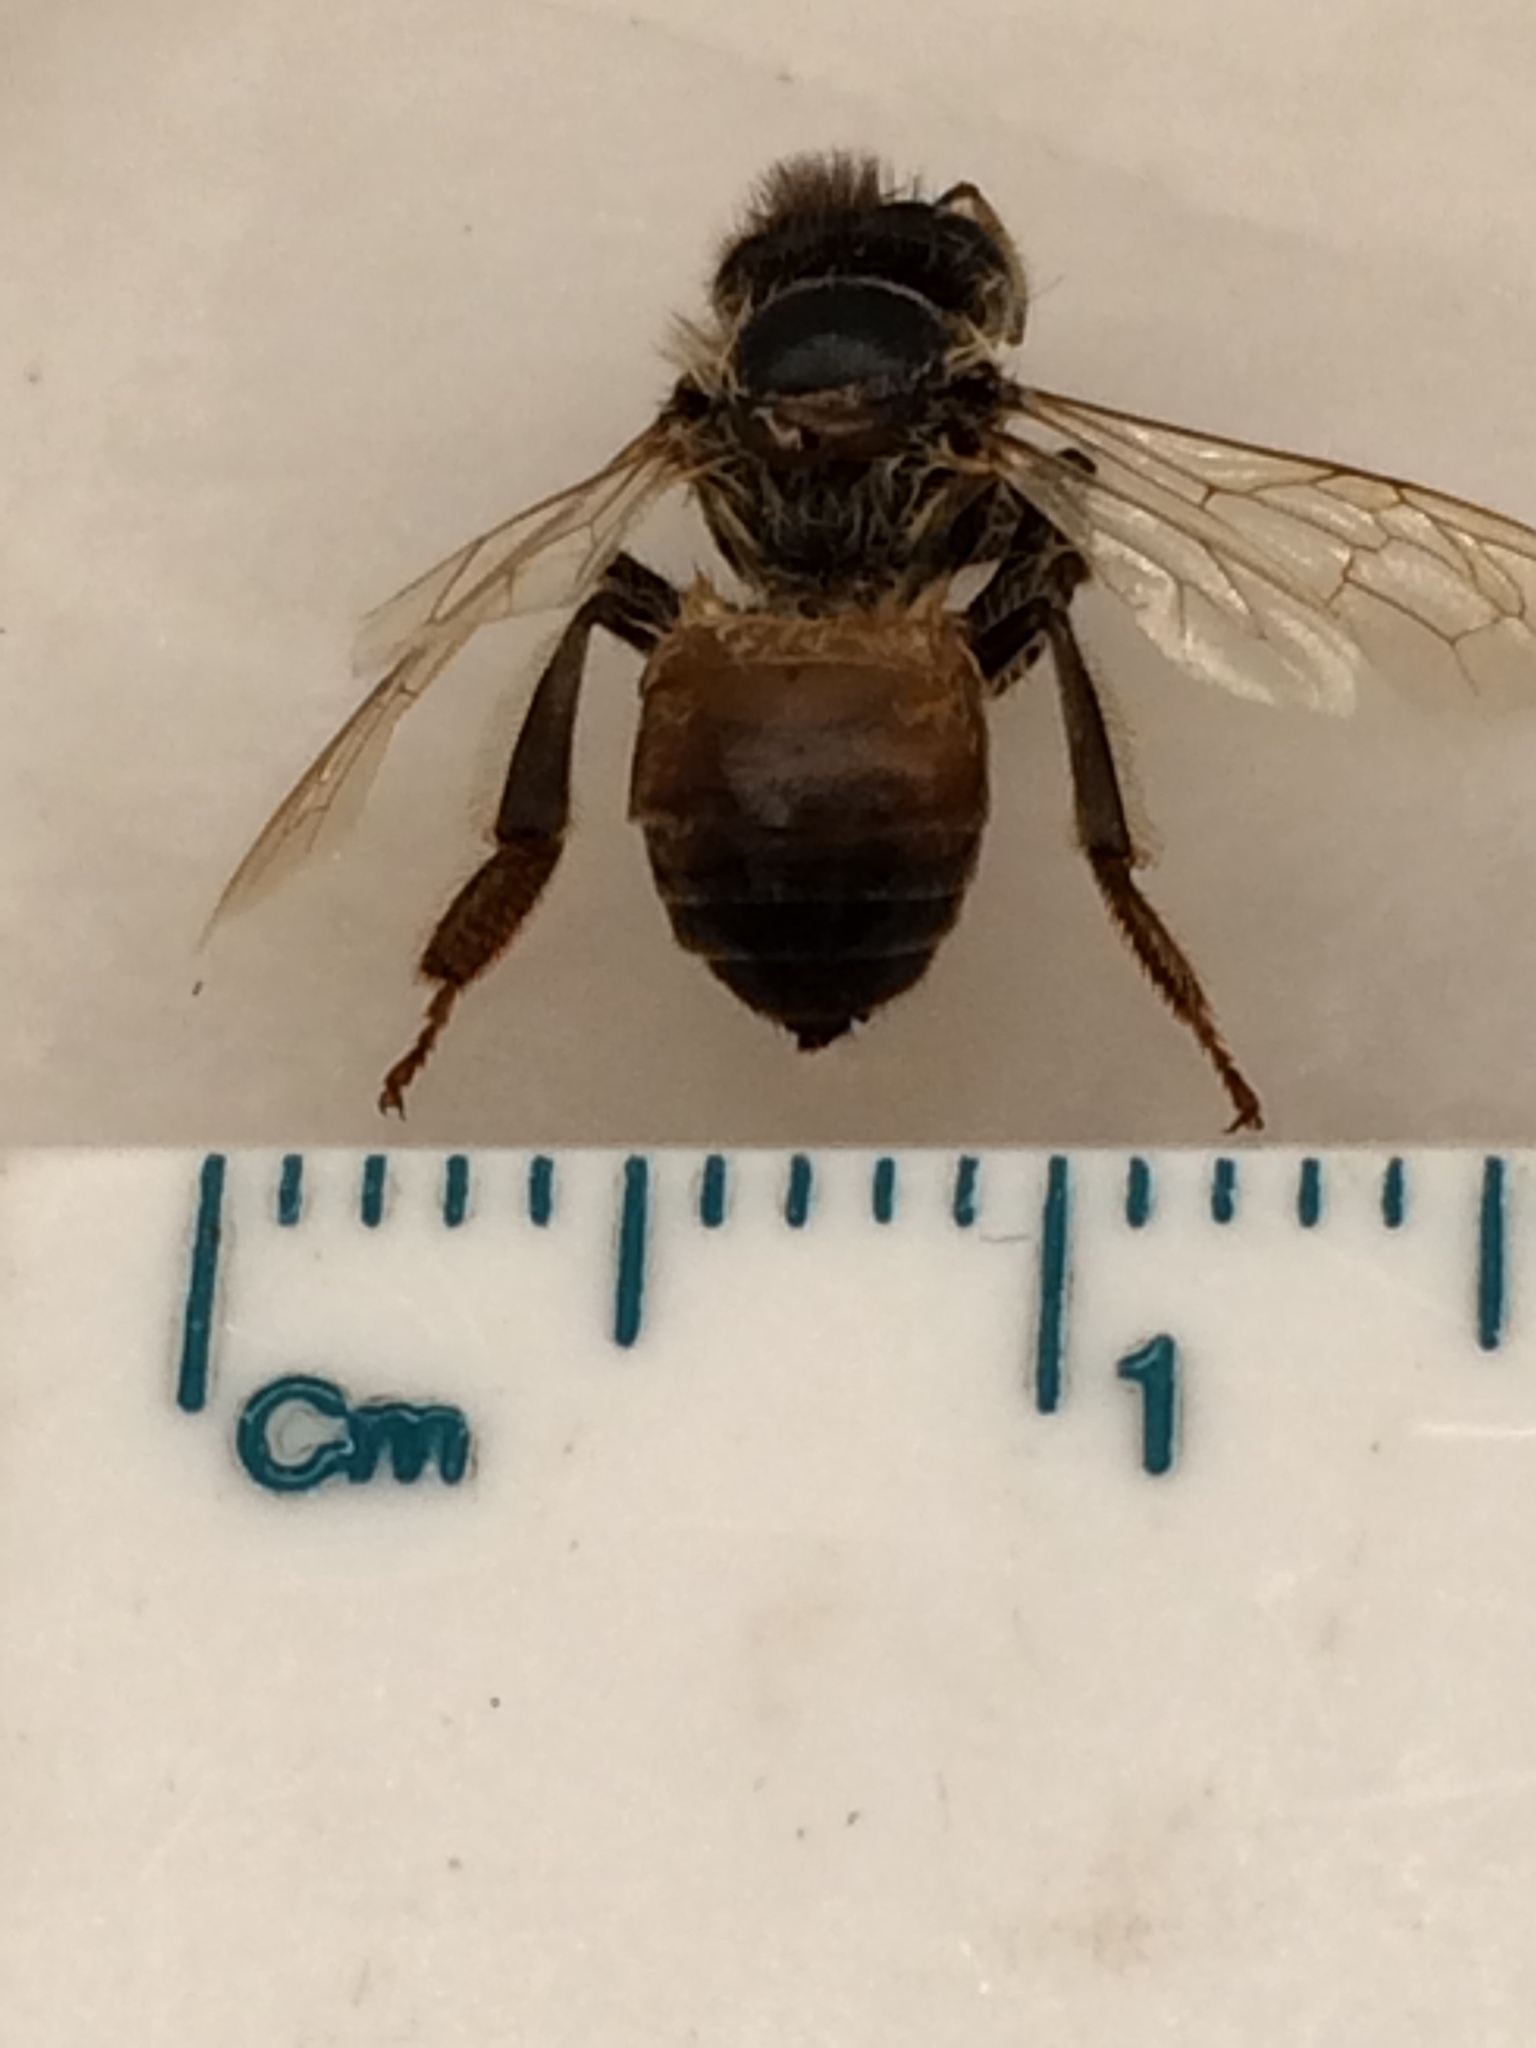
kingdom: Animalia
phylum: Arthropoda
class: Insecta
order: Hymenoptera
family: Apidae
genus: Apis
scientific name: Apis mellifera
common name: Honey bee
